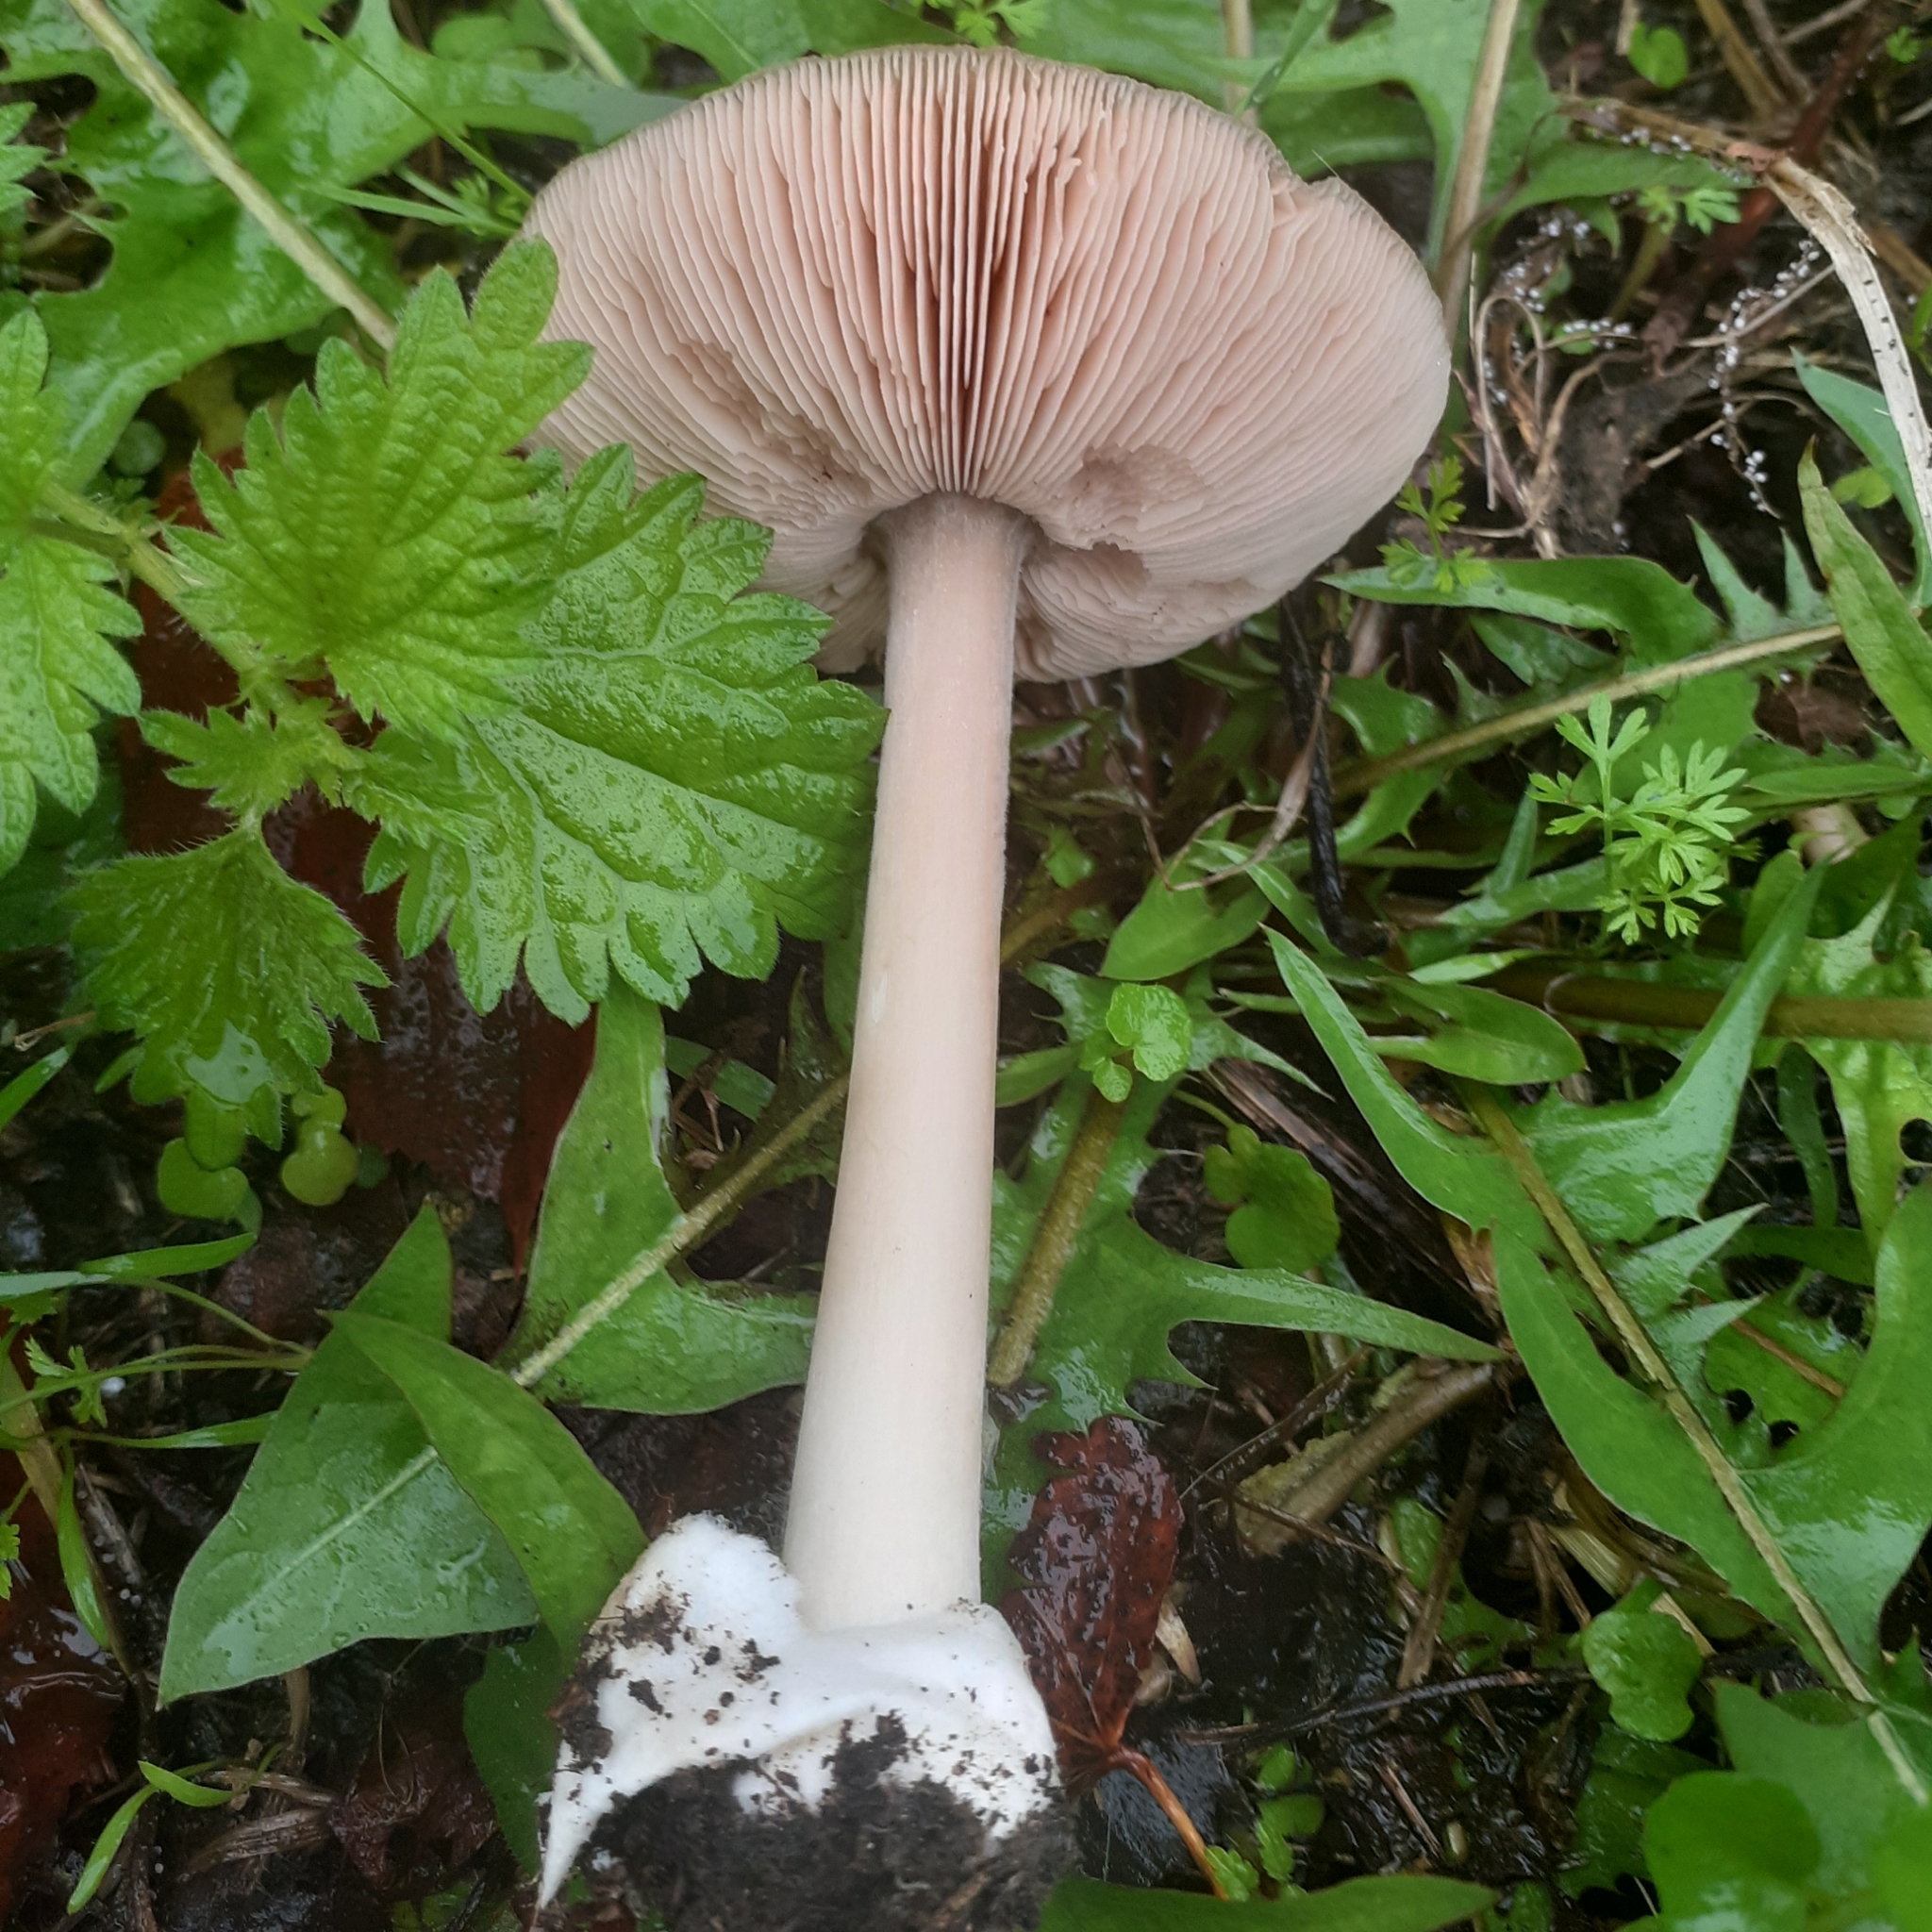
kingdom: Fungi
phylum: Basidiomycota
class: Agaricomycetes
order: Agaricales
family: Pluteaceae
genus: Volvopluteus
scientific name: Volvopluteus gloiocephalus
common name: Stubble rosegill
